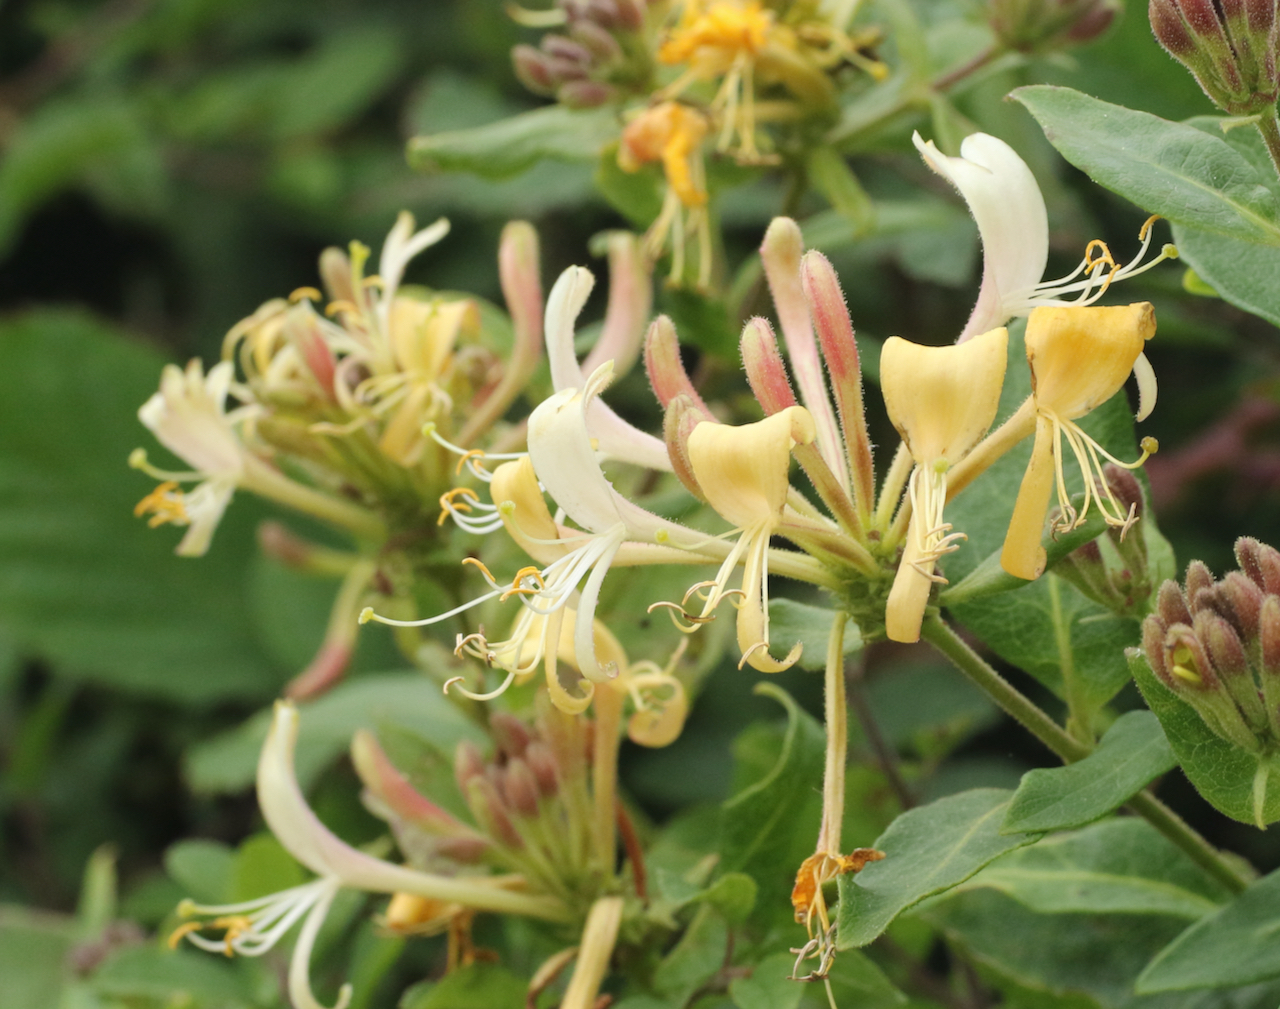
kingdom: Plantae
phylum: Tracheophyta
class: Magnoliopsida
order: Dipsacales
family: Caprifoliaceae
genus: Lonicera
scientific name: Lonicera periclymenum
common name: European honeysuckle
